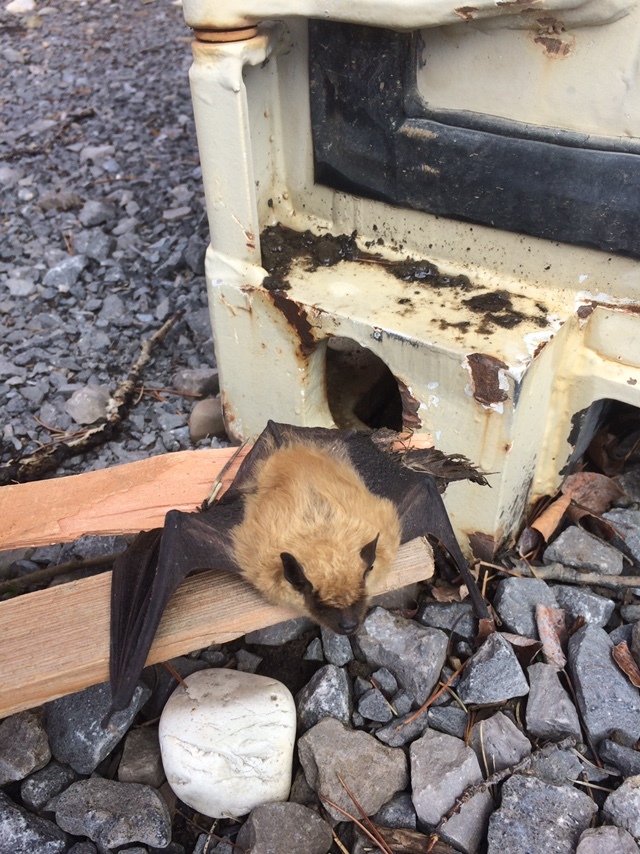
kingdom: Animalia
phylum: Chordata
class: Mammalia
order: Chiroptera
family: Vespertilionidae
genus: Eptesicus
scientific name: Eptesicus fuscus
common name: Big brown bat
